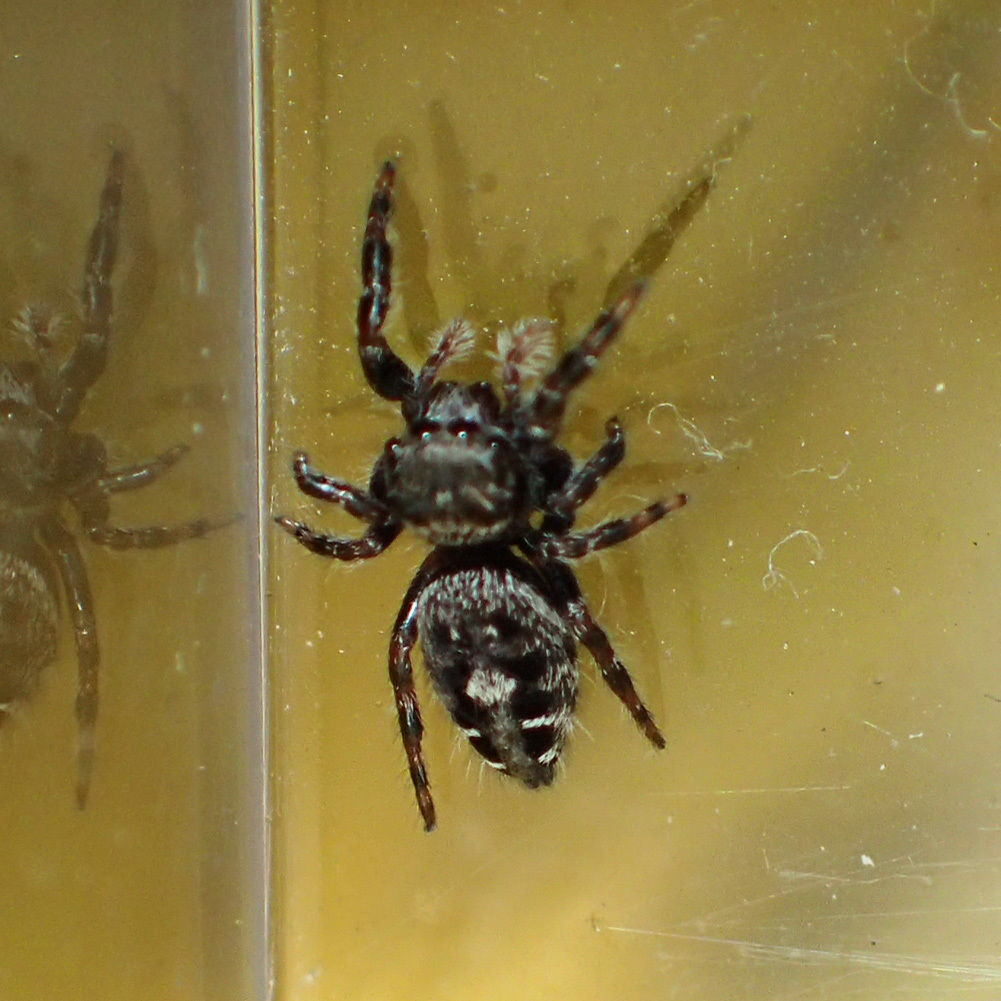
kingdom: Animalia
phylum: Arthropoda
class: Arachnida
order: Araneae
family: Salticidae
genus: Phidippus
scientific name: Phidippus putnami
